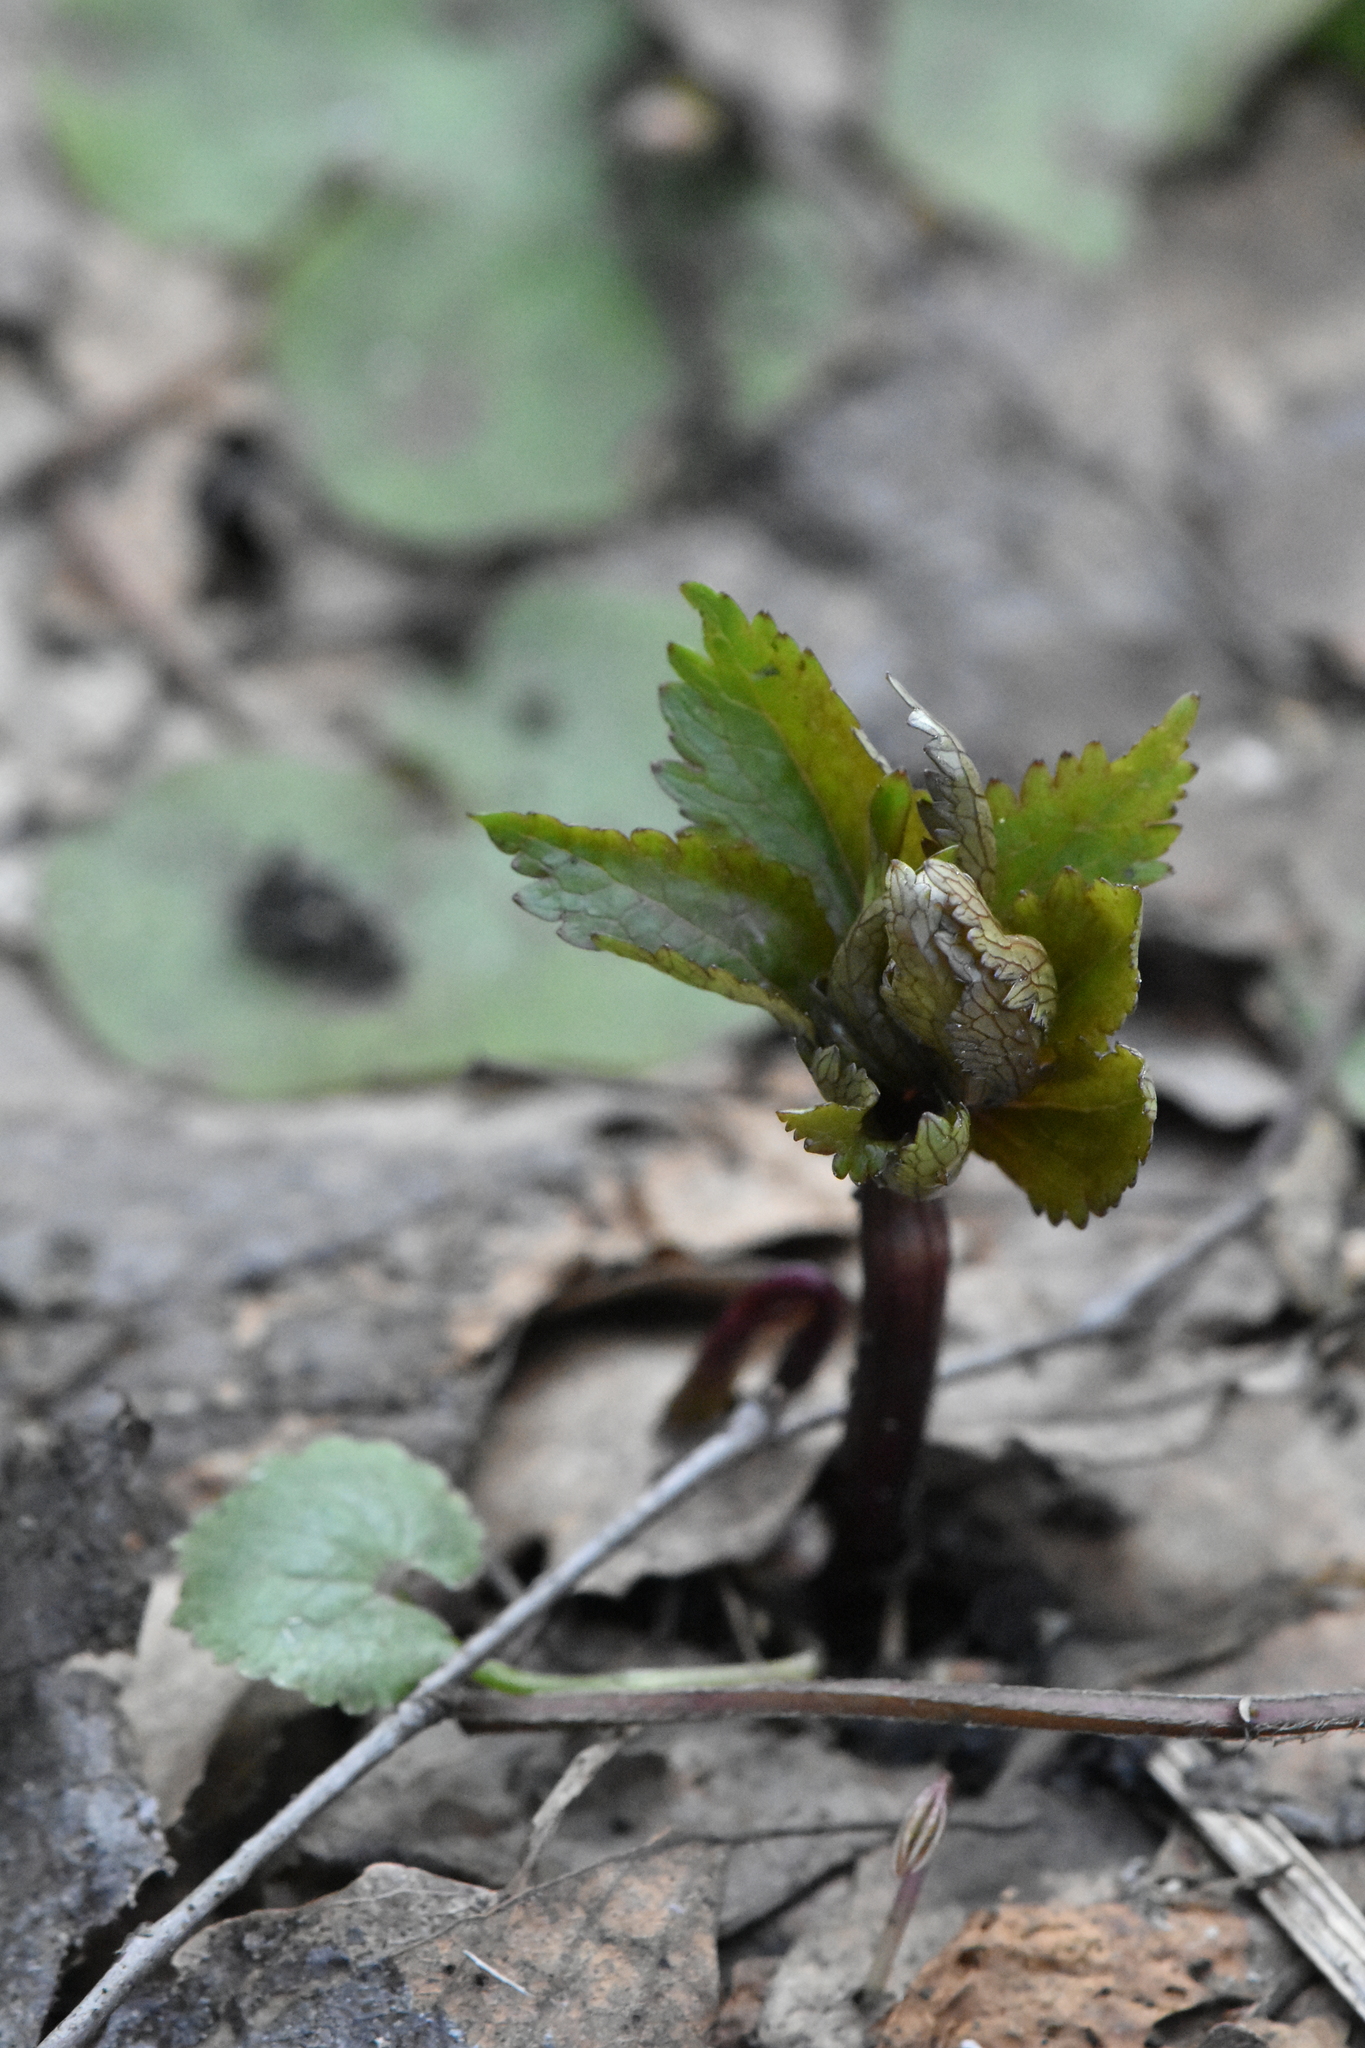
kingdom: Plantae
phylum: Tracheophyta
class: Magnoliopsida
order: Ranunculales
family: Ranunculaceae
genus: Ranunculus
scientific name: Ranunculus cassubicus
